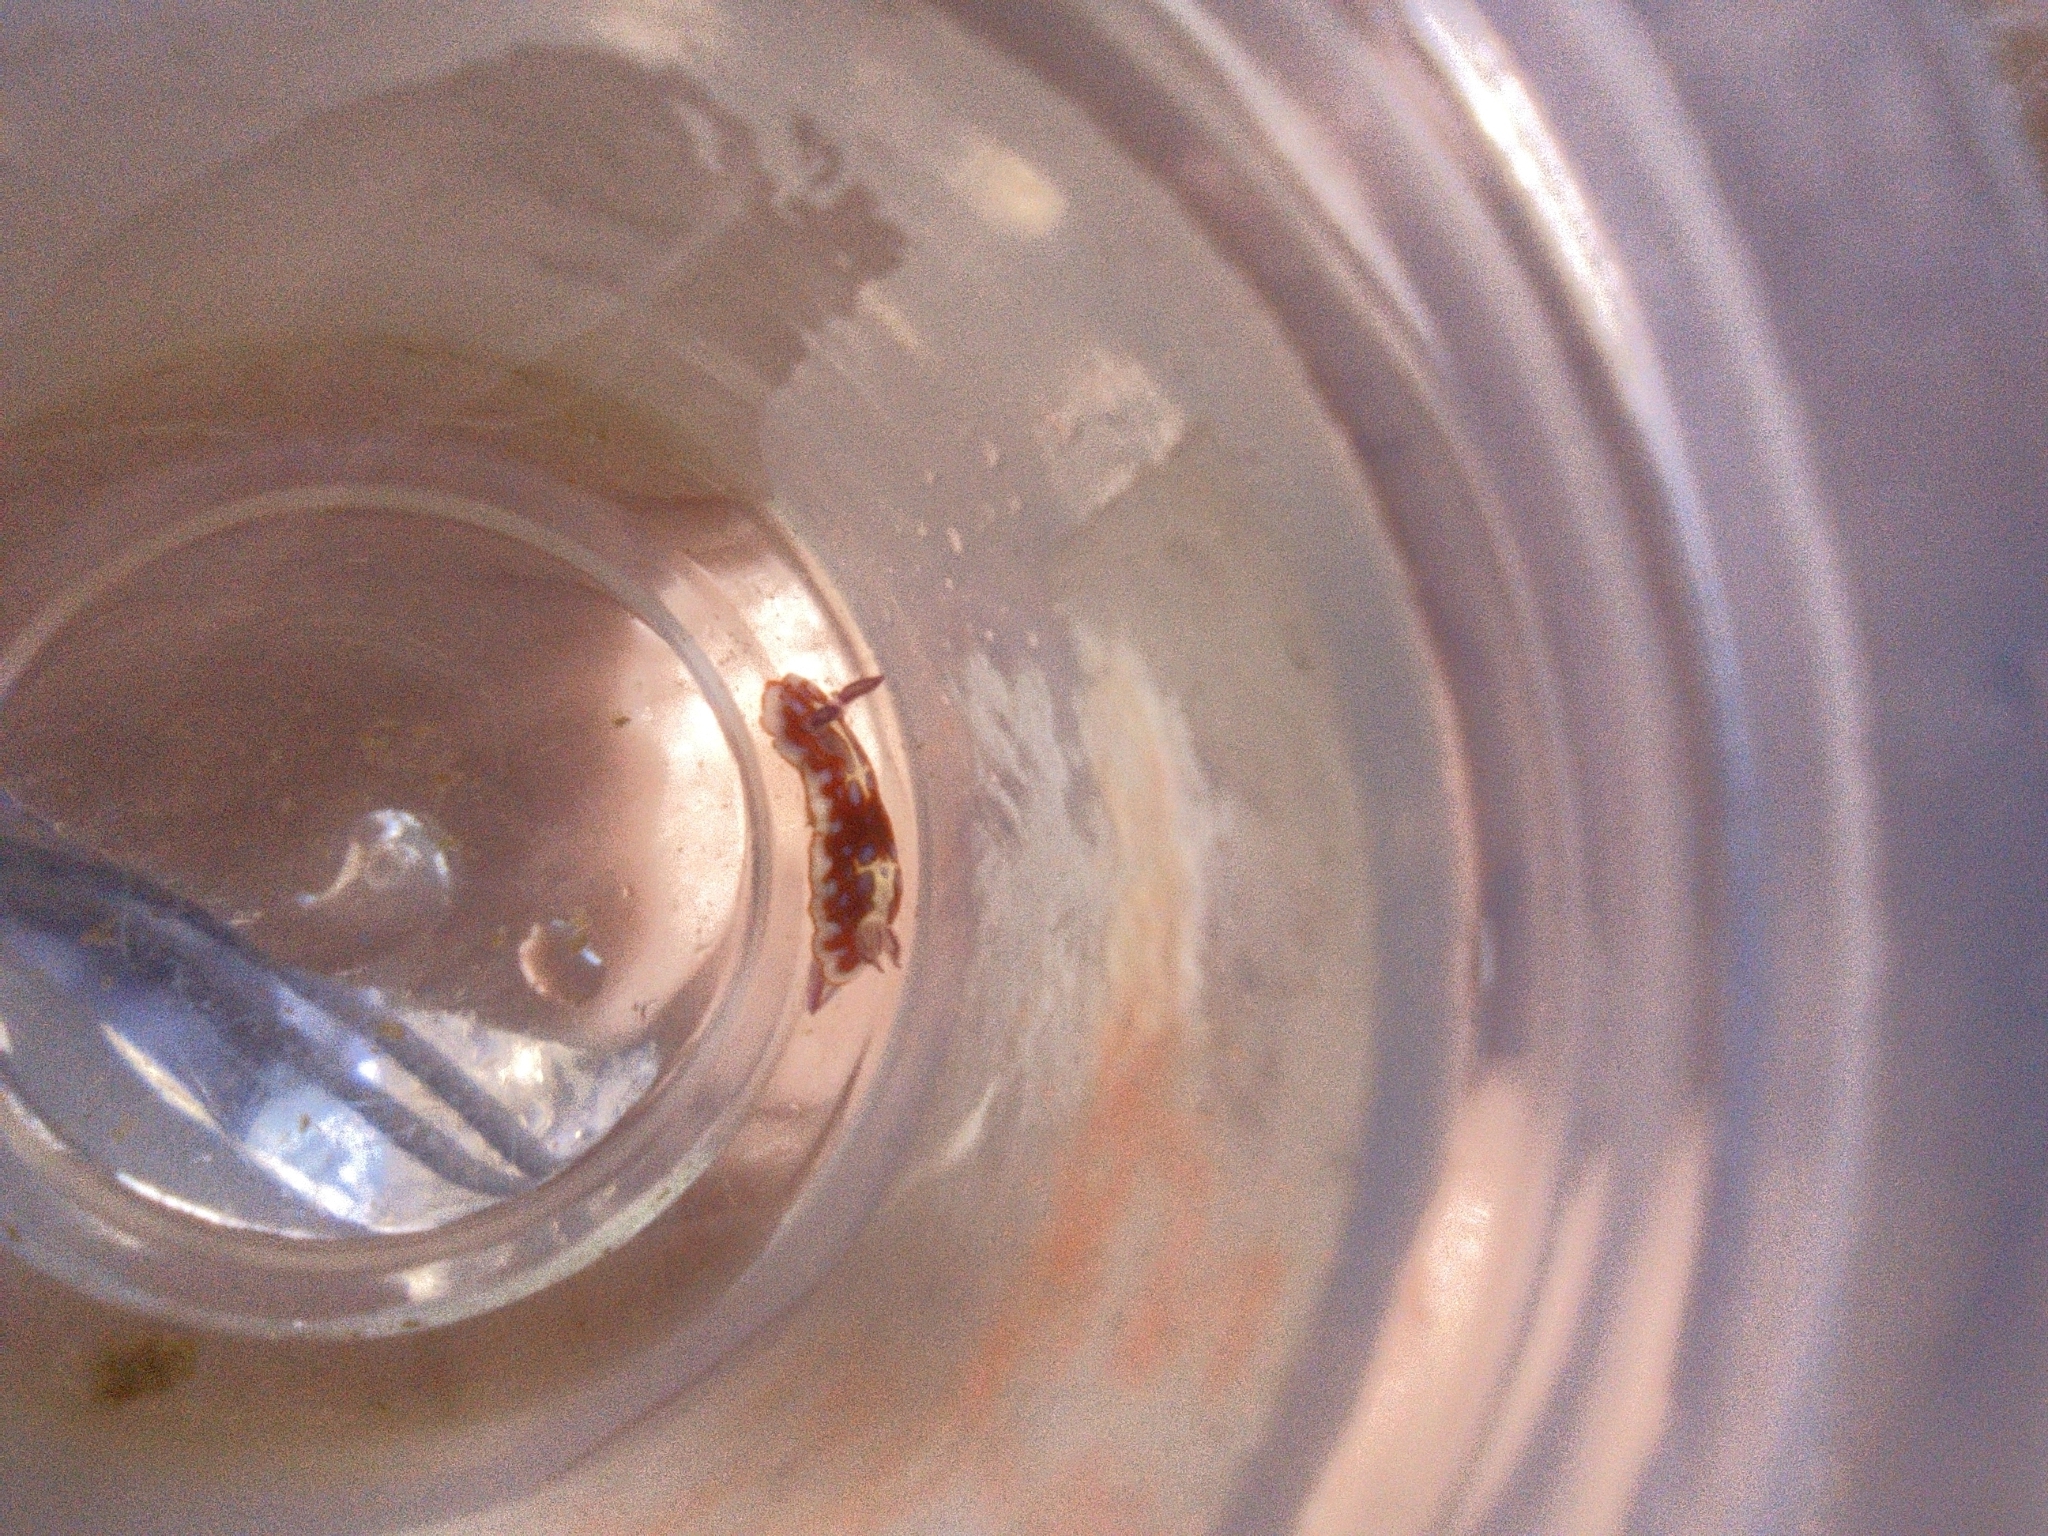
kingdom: Animalia
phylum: Mollusca
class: Gastropoda
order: Nudibranchia
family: Chromodorididae
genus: Felimida
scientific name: Felimida clenchi
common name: Bill clench's doris
